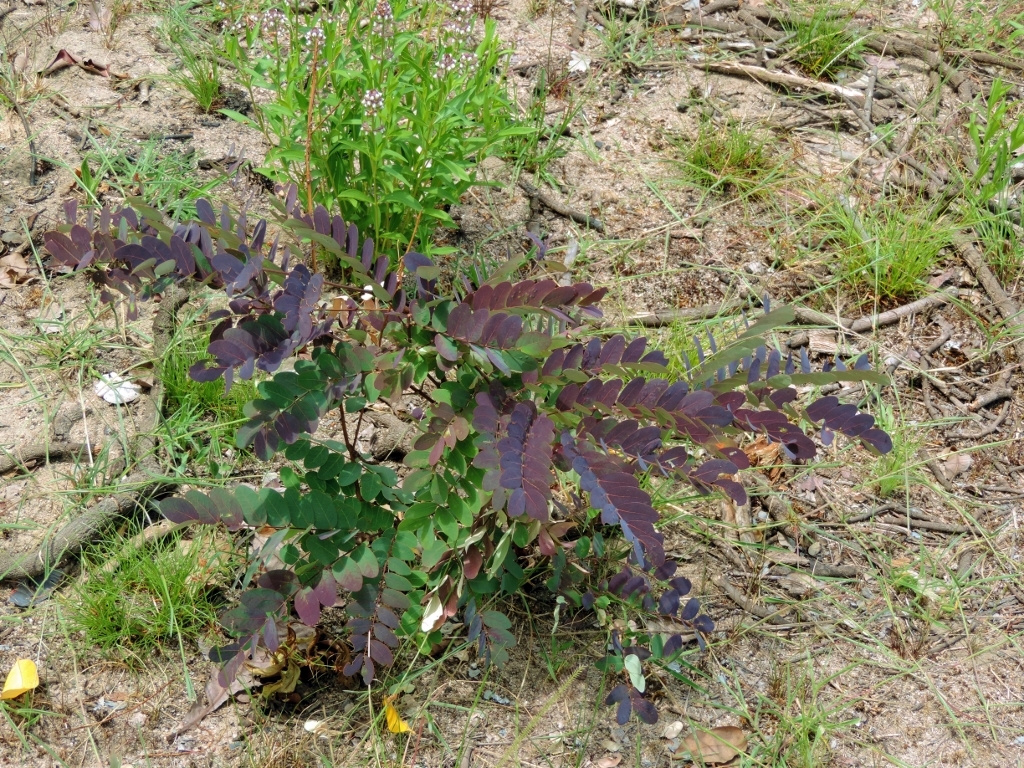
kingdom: Plantae
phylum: Tracheophyta
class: Magnoliopsida
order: Fabales
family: Fabaceae
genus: Albizia
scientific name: Albizia antunesiana
